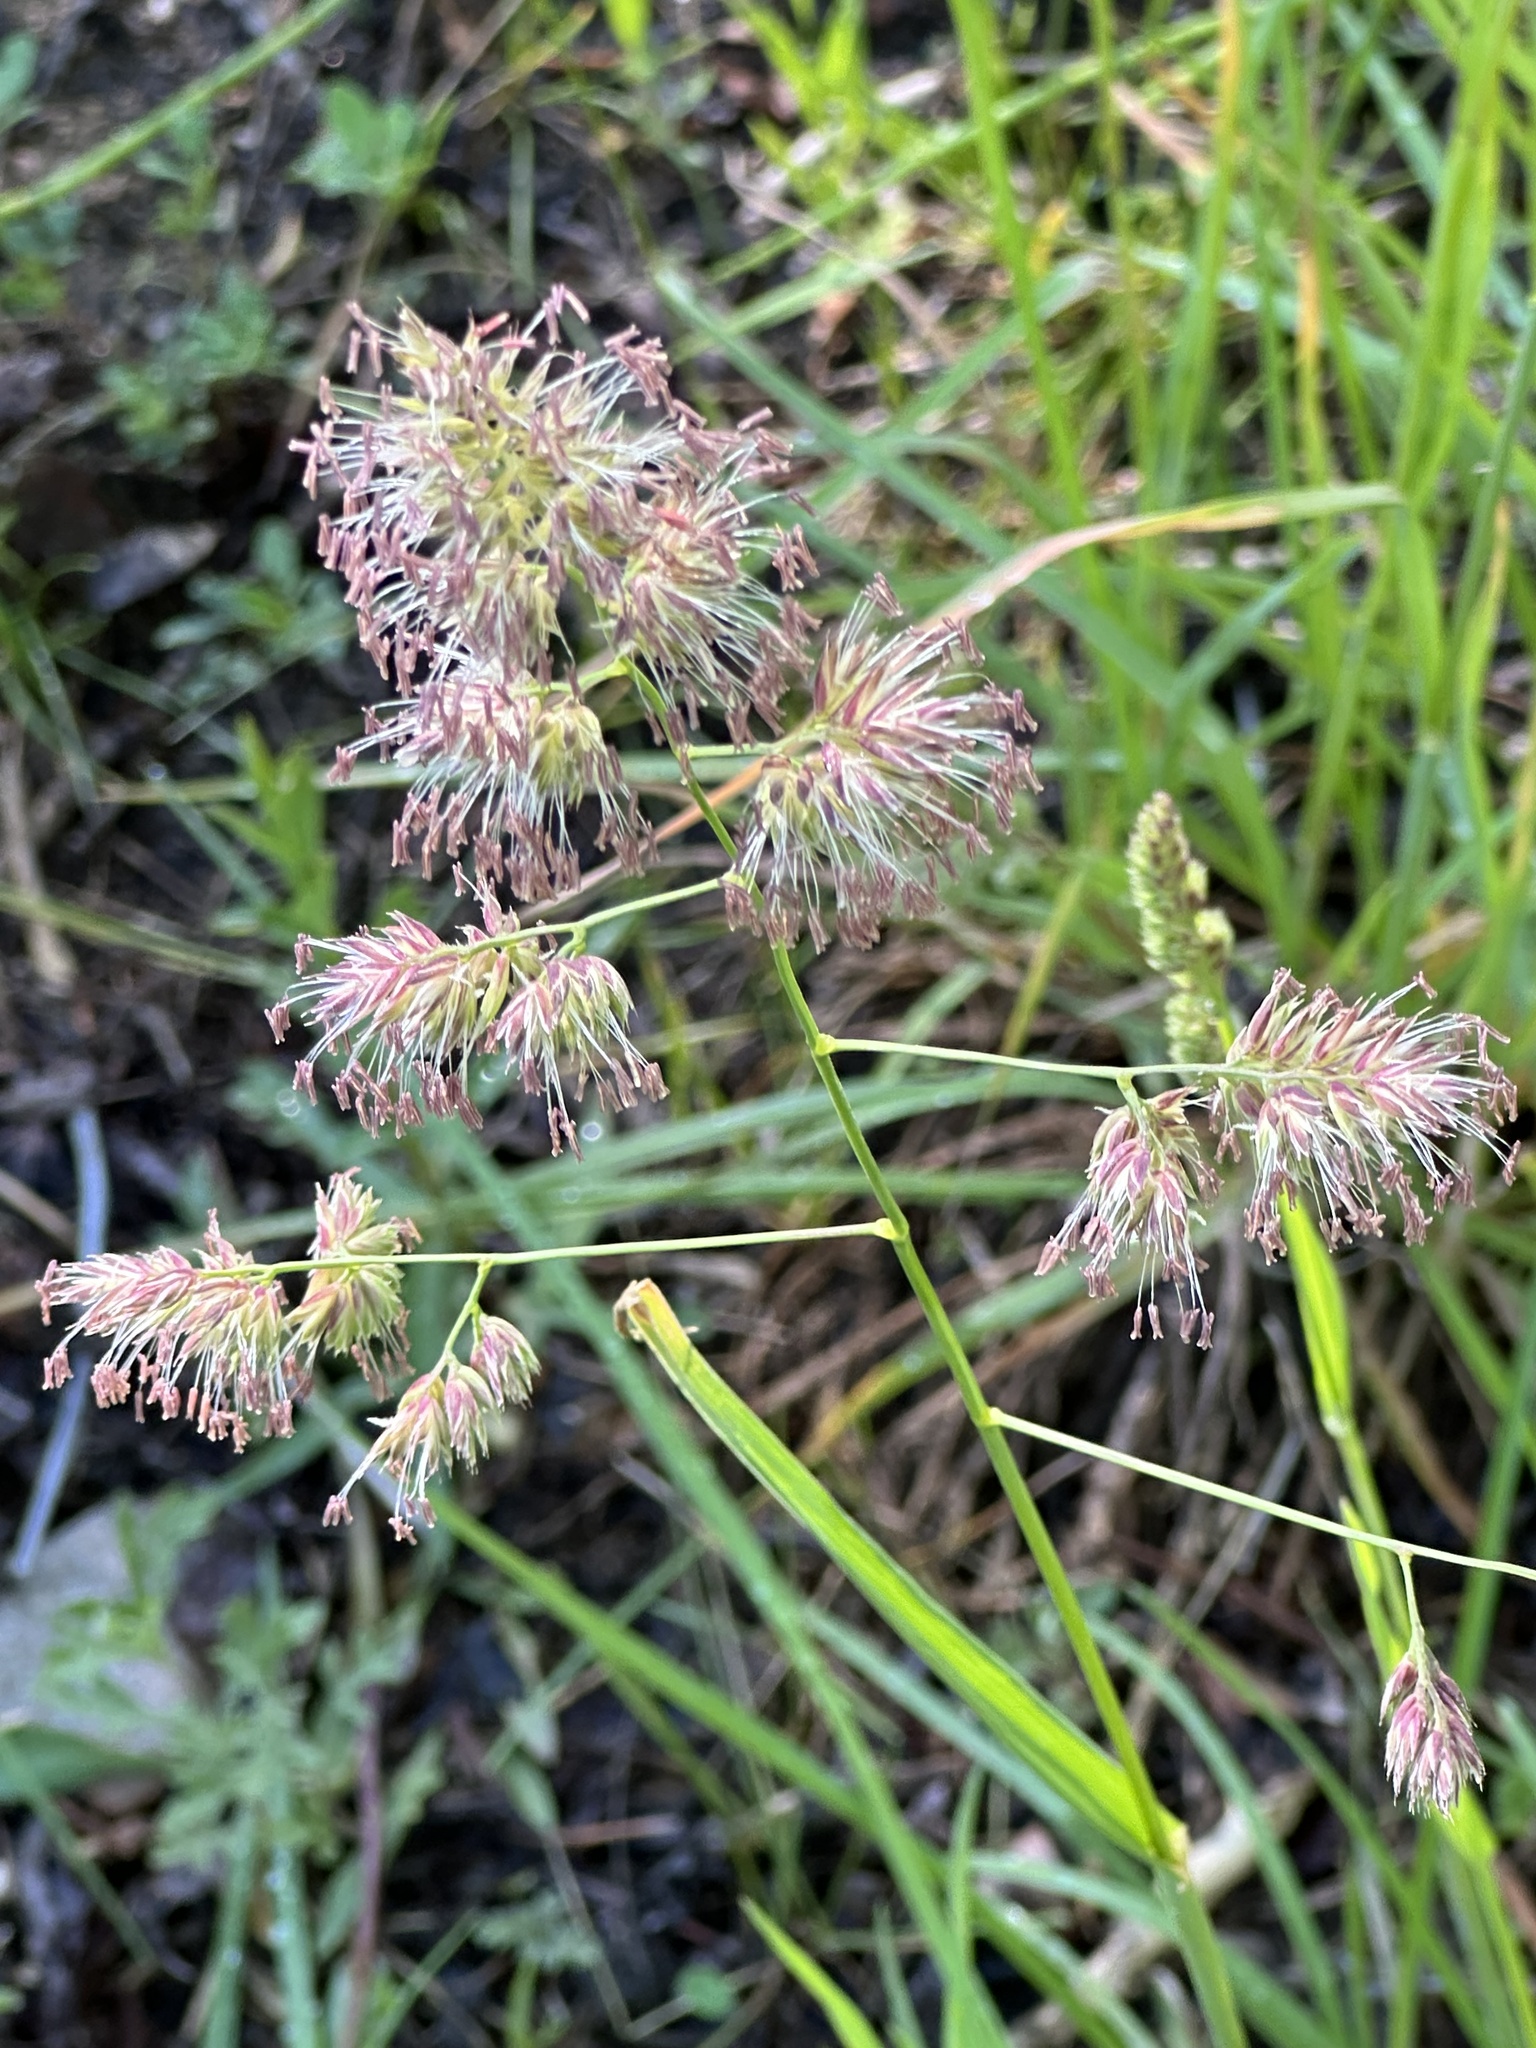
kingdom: Plantae
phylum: Tracheophyta
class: Liliopsida
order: Poales
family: Poaceae
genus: Dactylis
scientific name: Dactylis glomerata
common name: Orchardgrass
